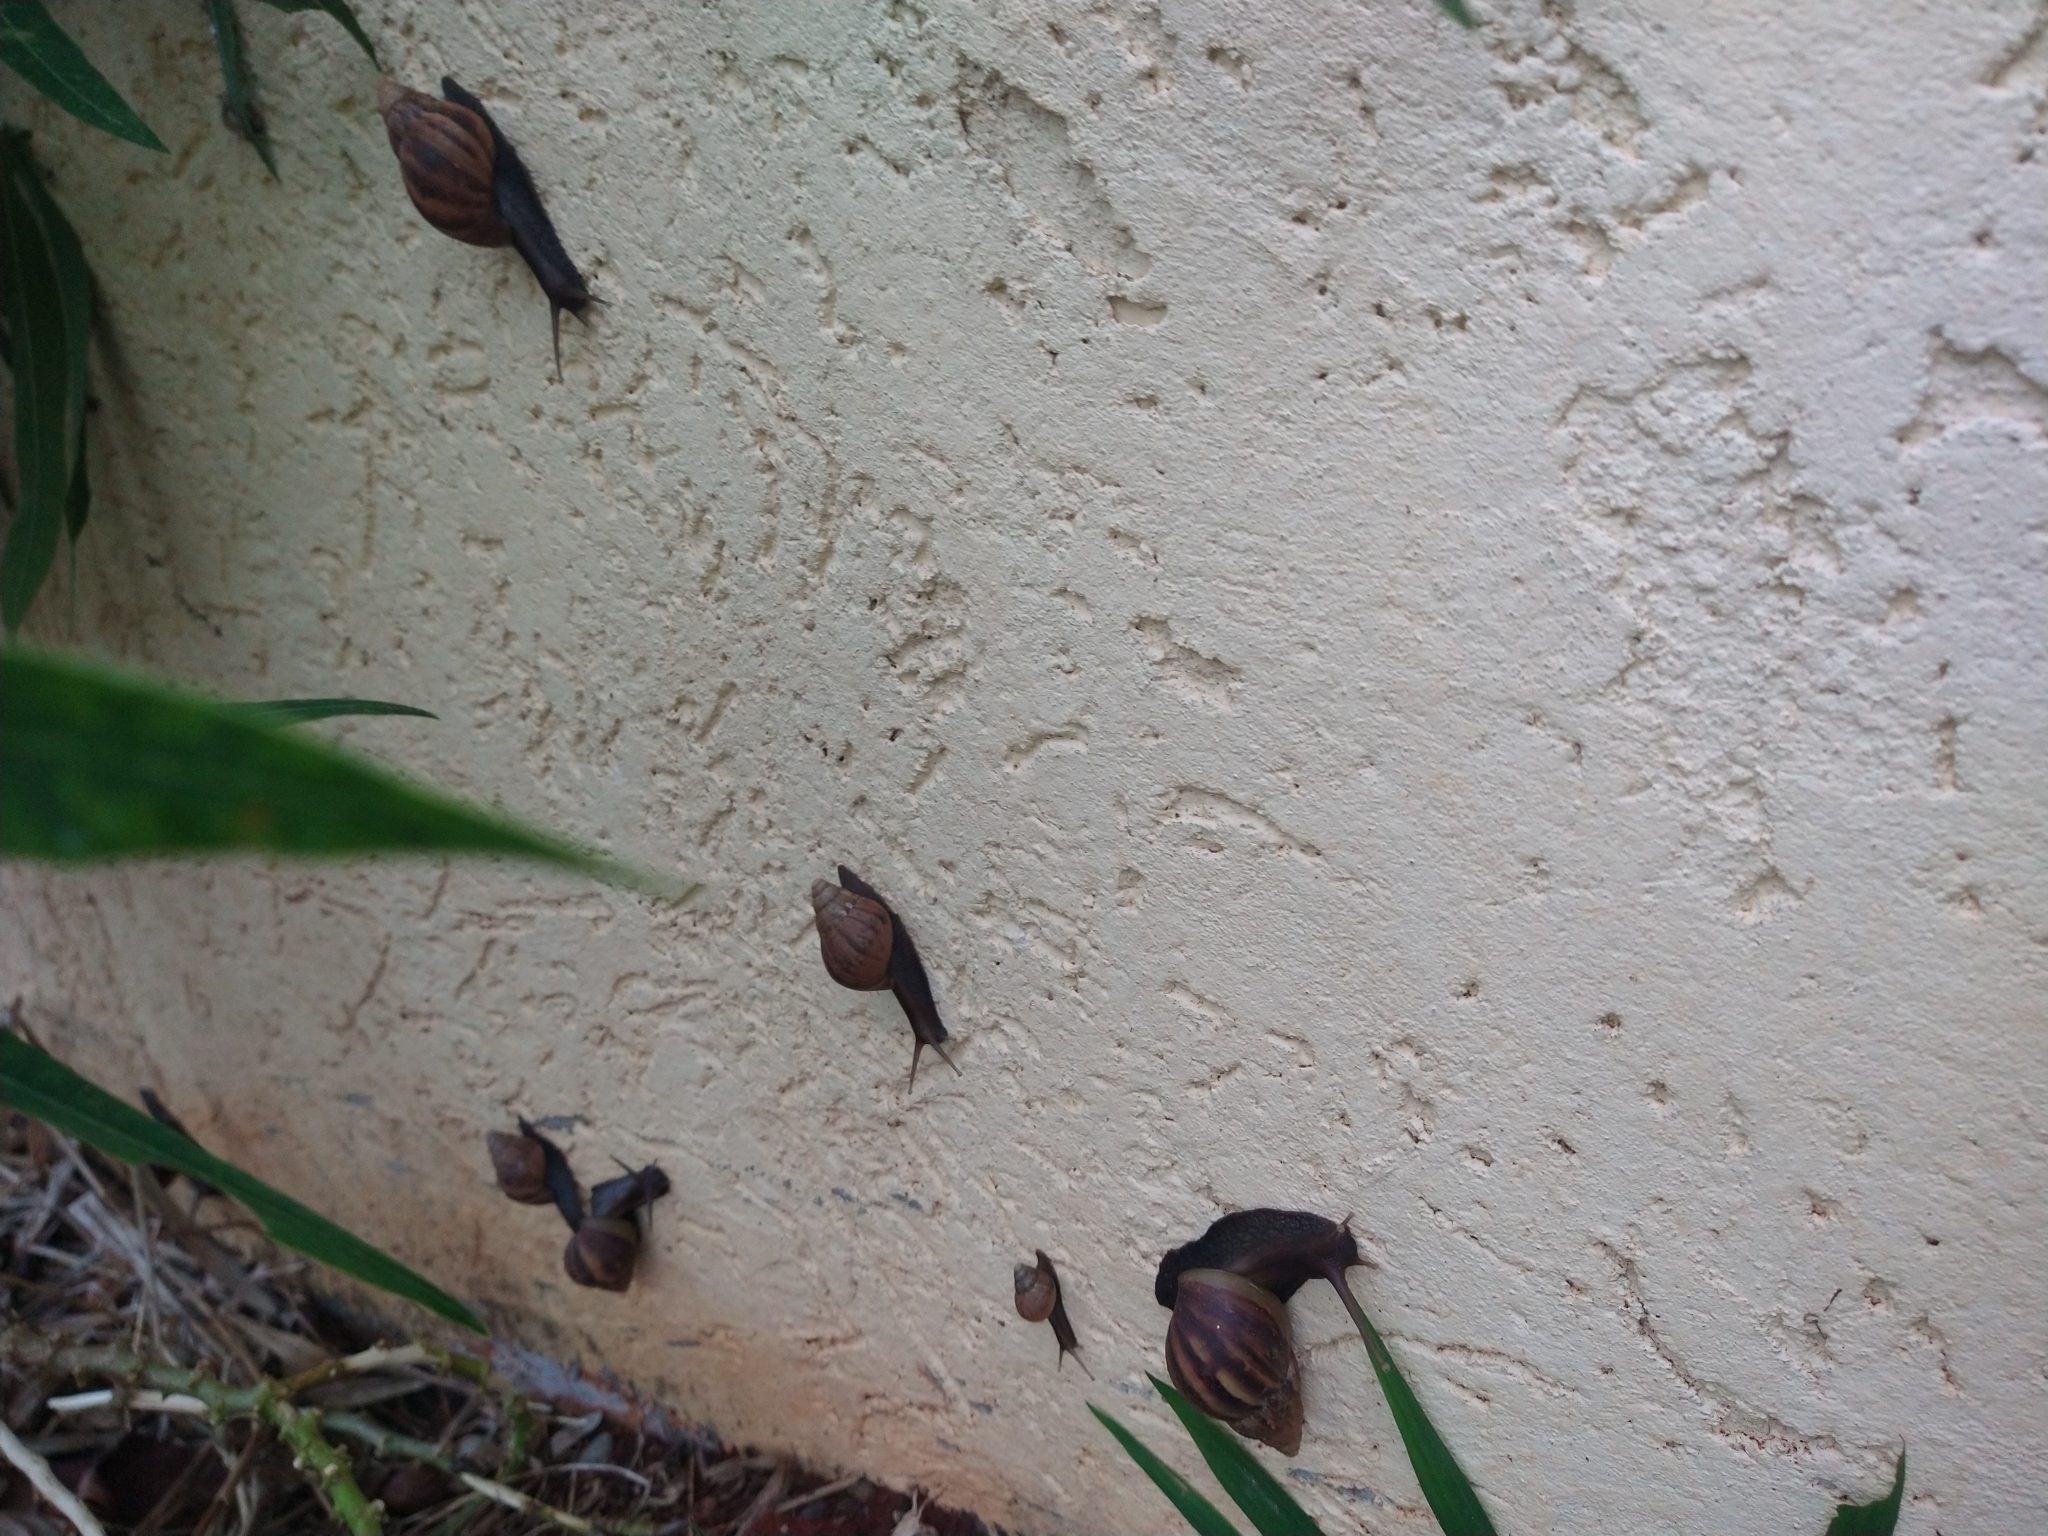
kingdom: Animalia
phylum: Mollusca
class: Gastropoda
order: Stylommatophora
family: Achatinidae
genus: Lissachatina
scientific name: Lissachatina fulica
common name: Giant african snail
